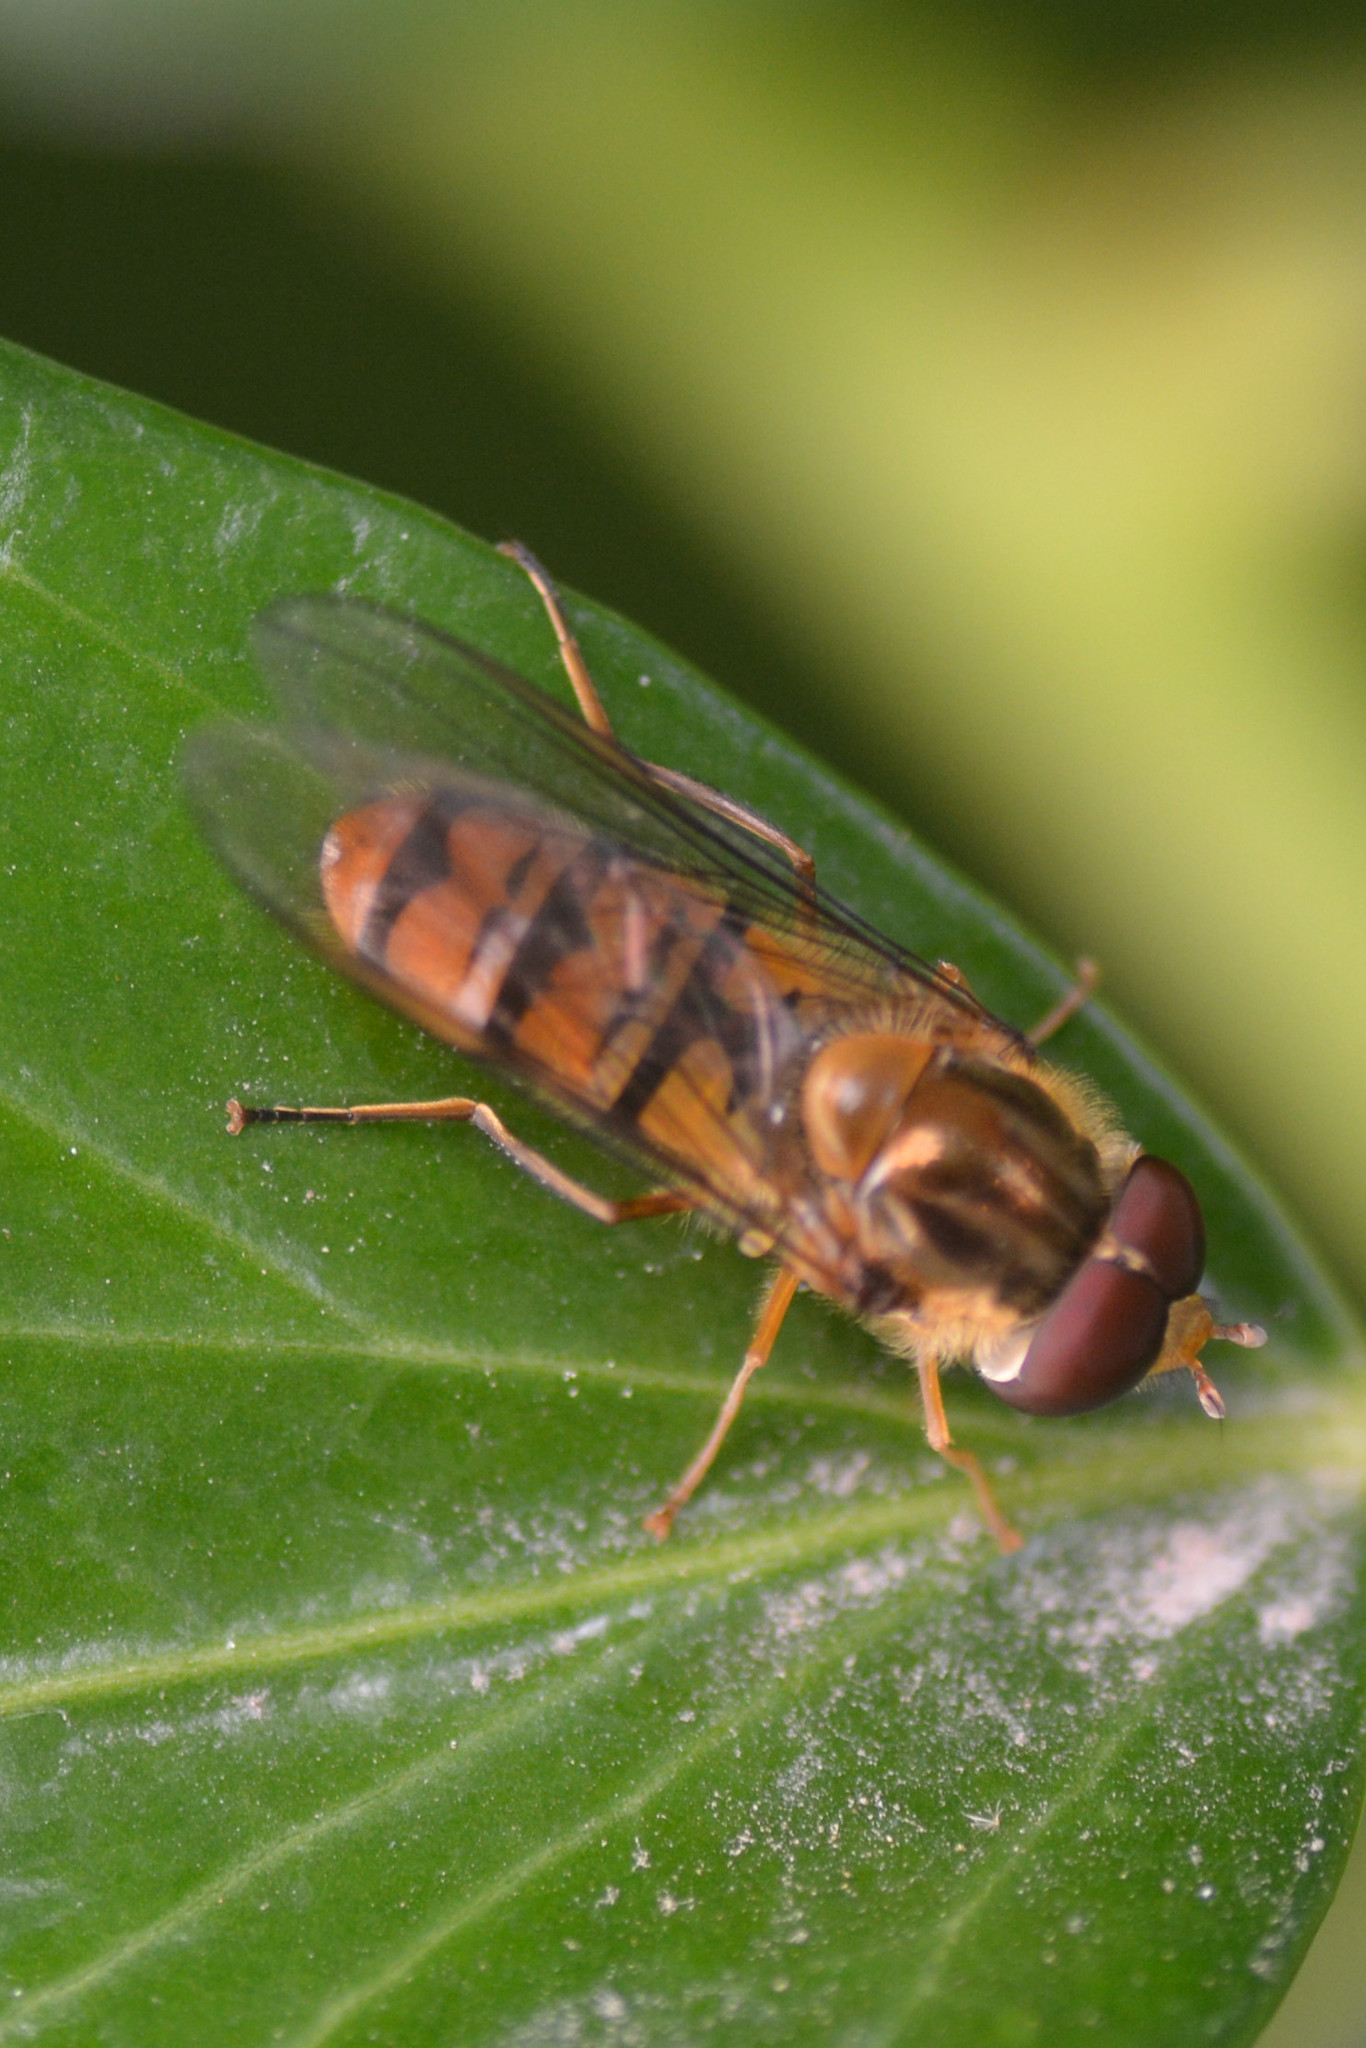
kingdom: Animalia
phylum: Arthropoda
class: Insecta
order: Diptera
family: Syrphidae
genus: Episyrphus
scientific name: Episyrphus balteatus
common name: Marmalade hoverfly
